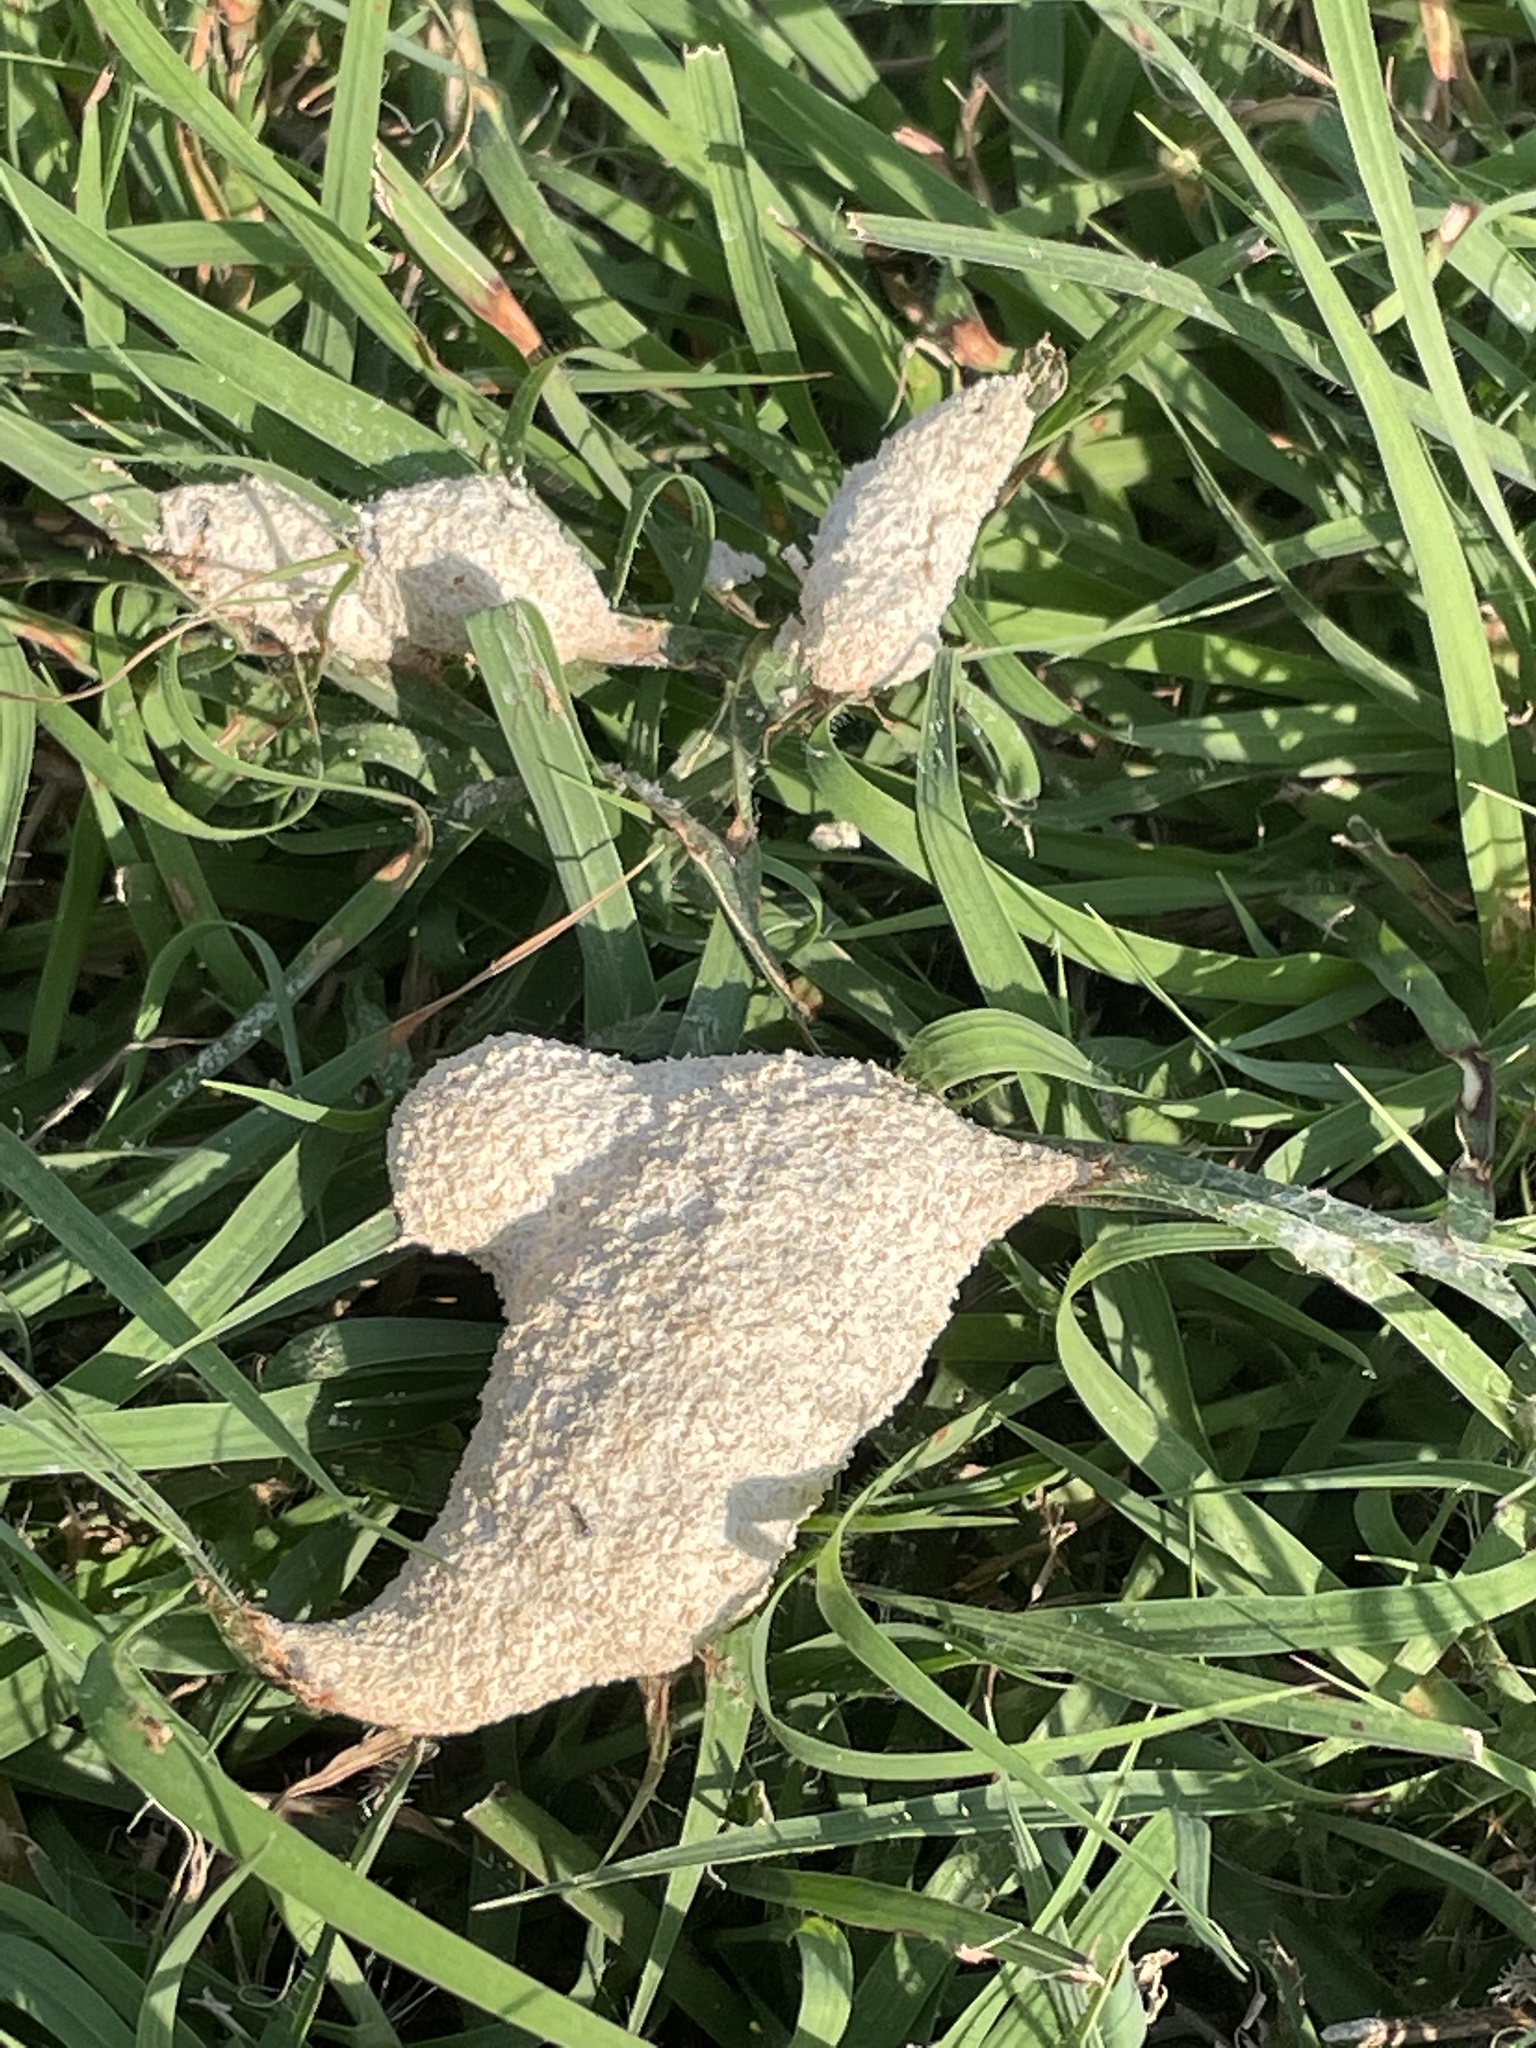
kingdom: Protozoa
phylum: Mycetozoa
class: Myxomycetes
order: Physarales
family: Physaraceae
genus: Fuligo
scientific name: Fuligo septica
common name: Dog vomit slime mold
